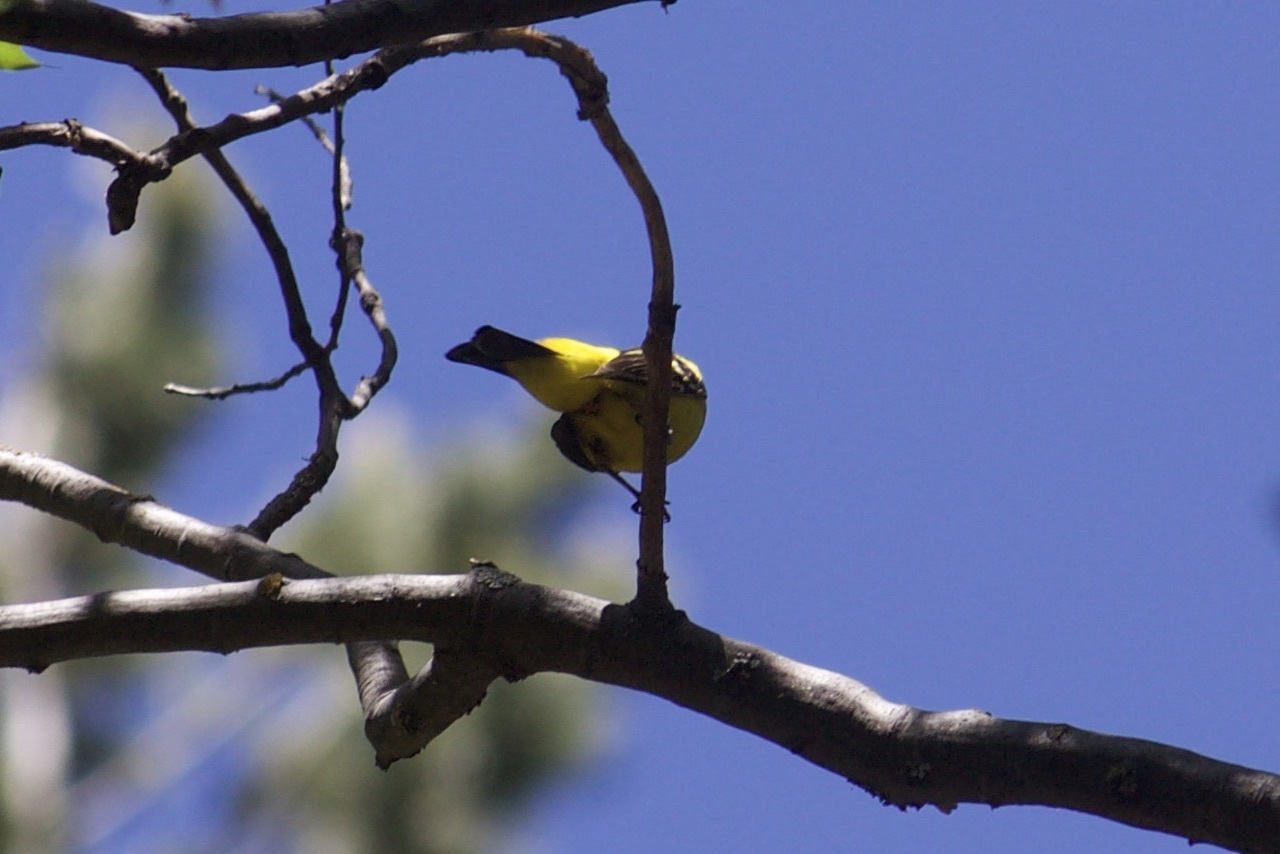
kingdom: Animalia
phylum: Chordata
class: Aves
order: Passeriformes
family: Cardinalidae
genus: Piranga
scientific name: Piranga ludoviciana
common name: Western tanager
